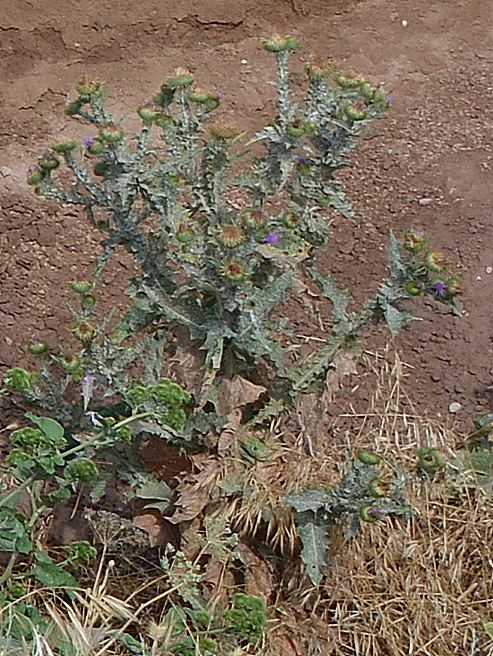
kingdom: Plantae
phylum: Tracheophyta
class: Magnoliopsida
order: Asterales
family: Asteraceae
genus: Onopordum
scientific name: Onopordum acanthium
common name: Scotch thistle
